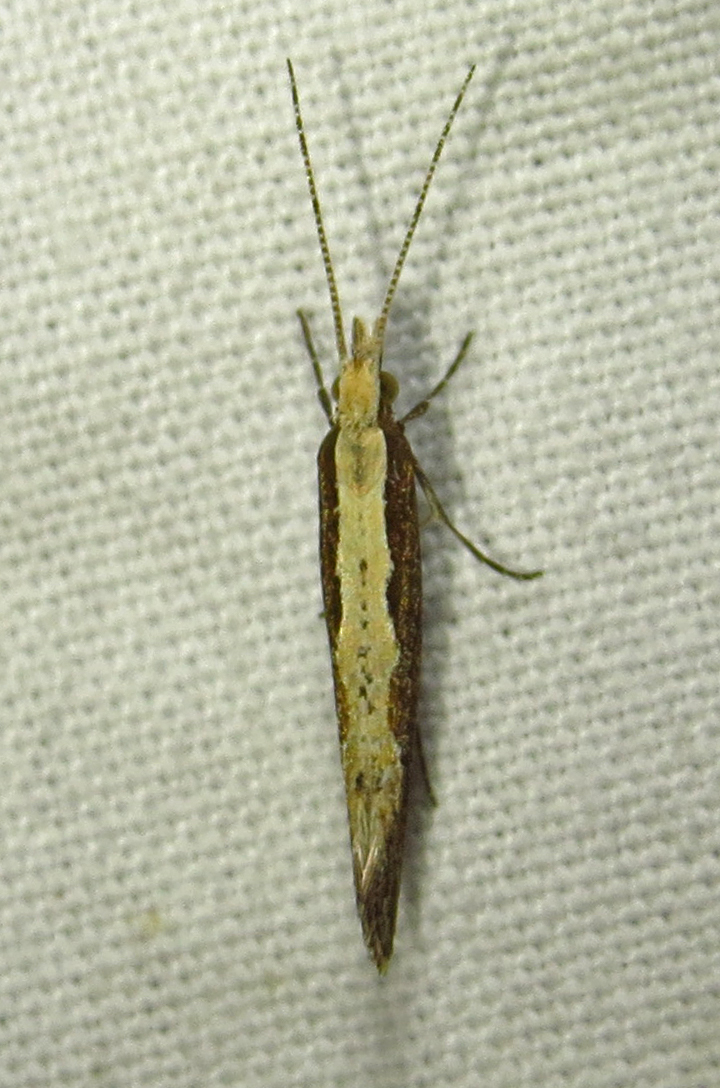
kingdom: Animalia
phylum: Arthropoda
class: Insecta
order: Lepidoptera
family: Plutellidae
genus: Plutella
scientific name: Plutella xylostella
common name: Diamond-back moth
